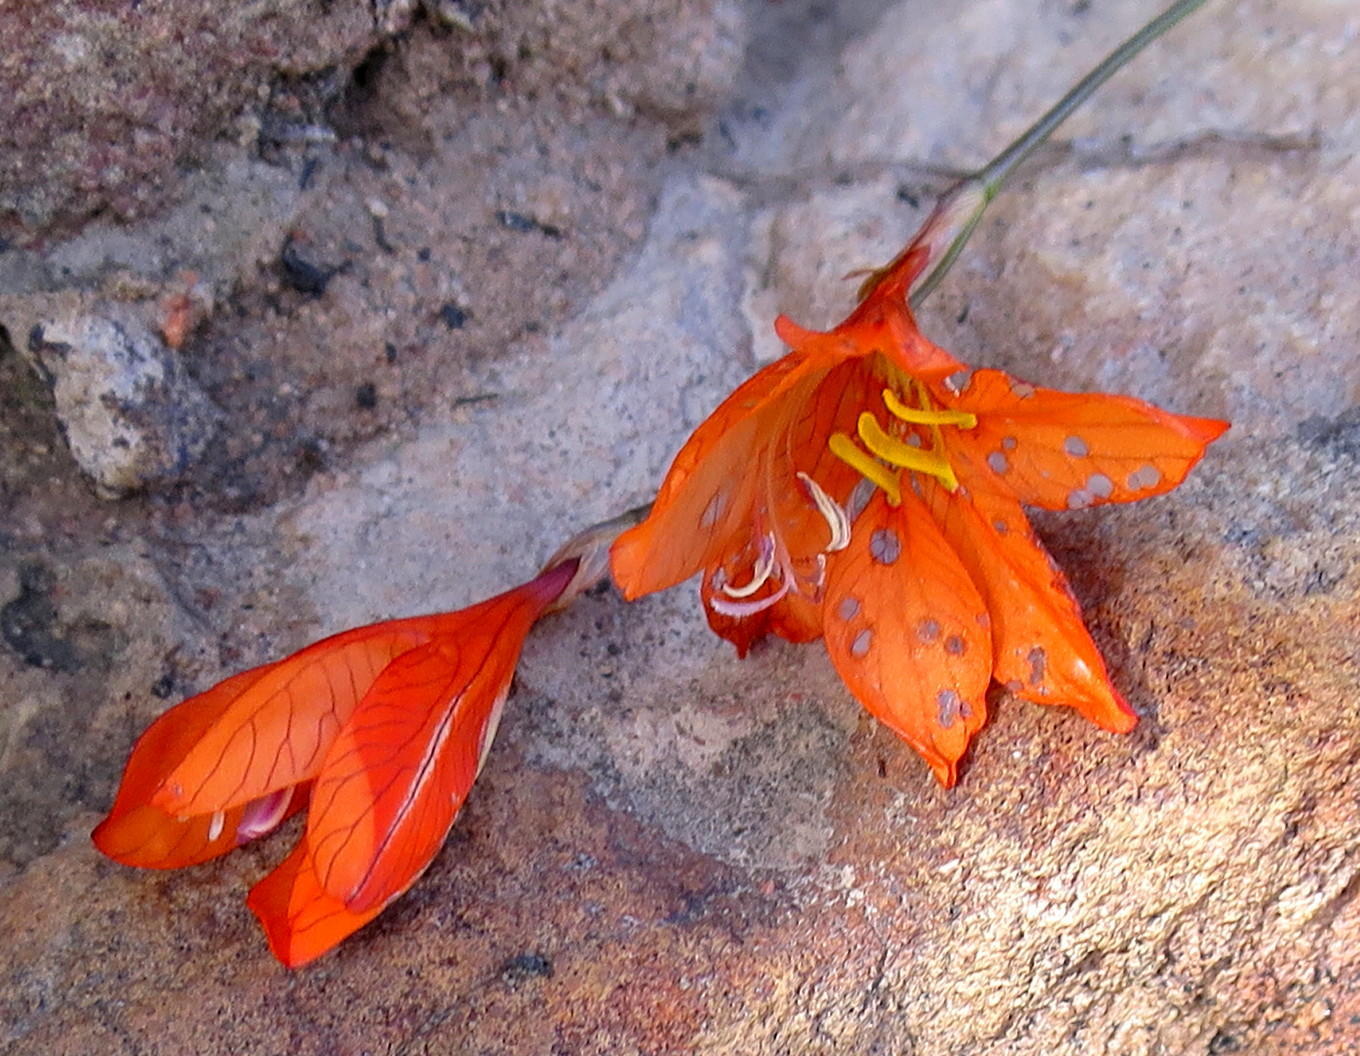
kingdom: Plantae
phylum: Tracheophyta
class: Liliopsida
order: Asparagales
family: Iridaceae
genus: Tritonia
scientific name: Tritonia securigera
